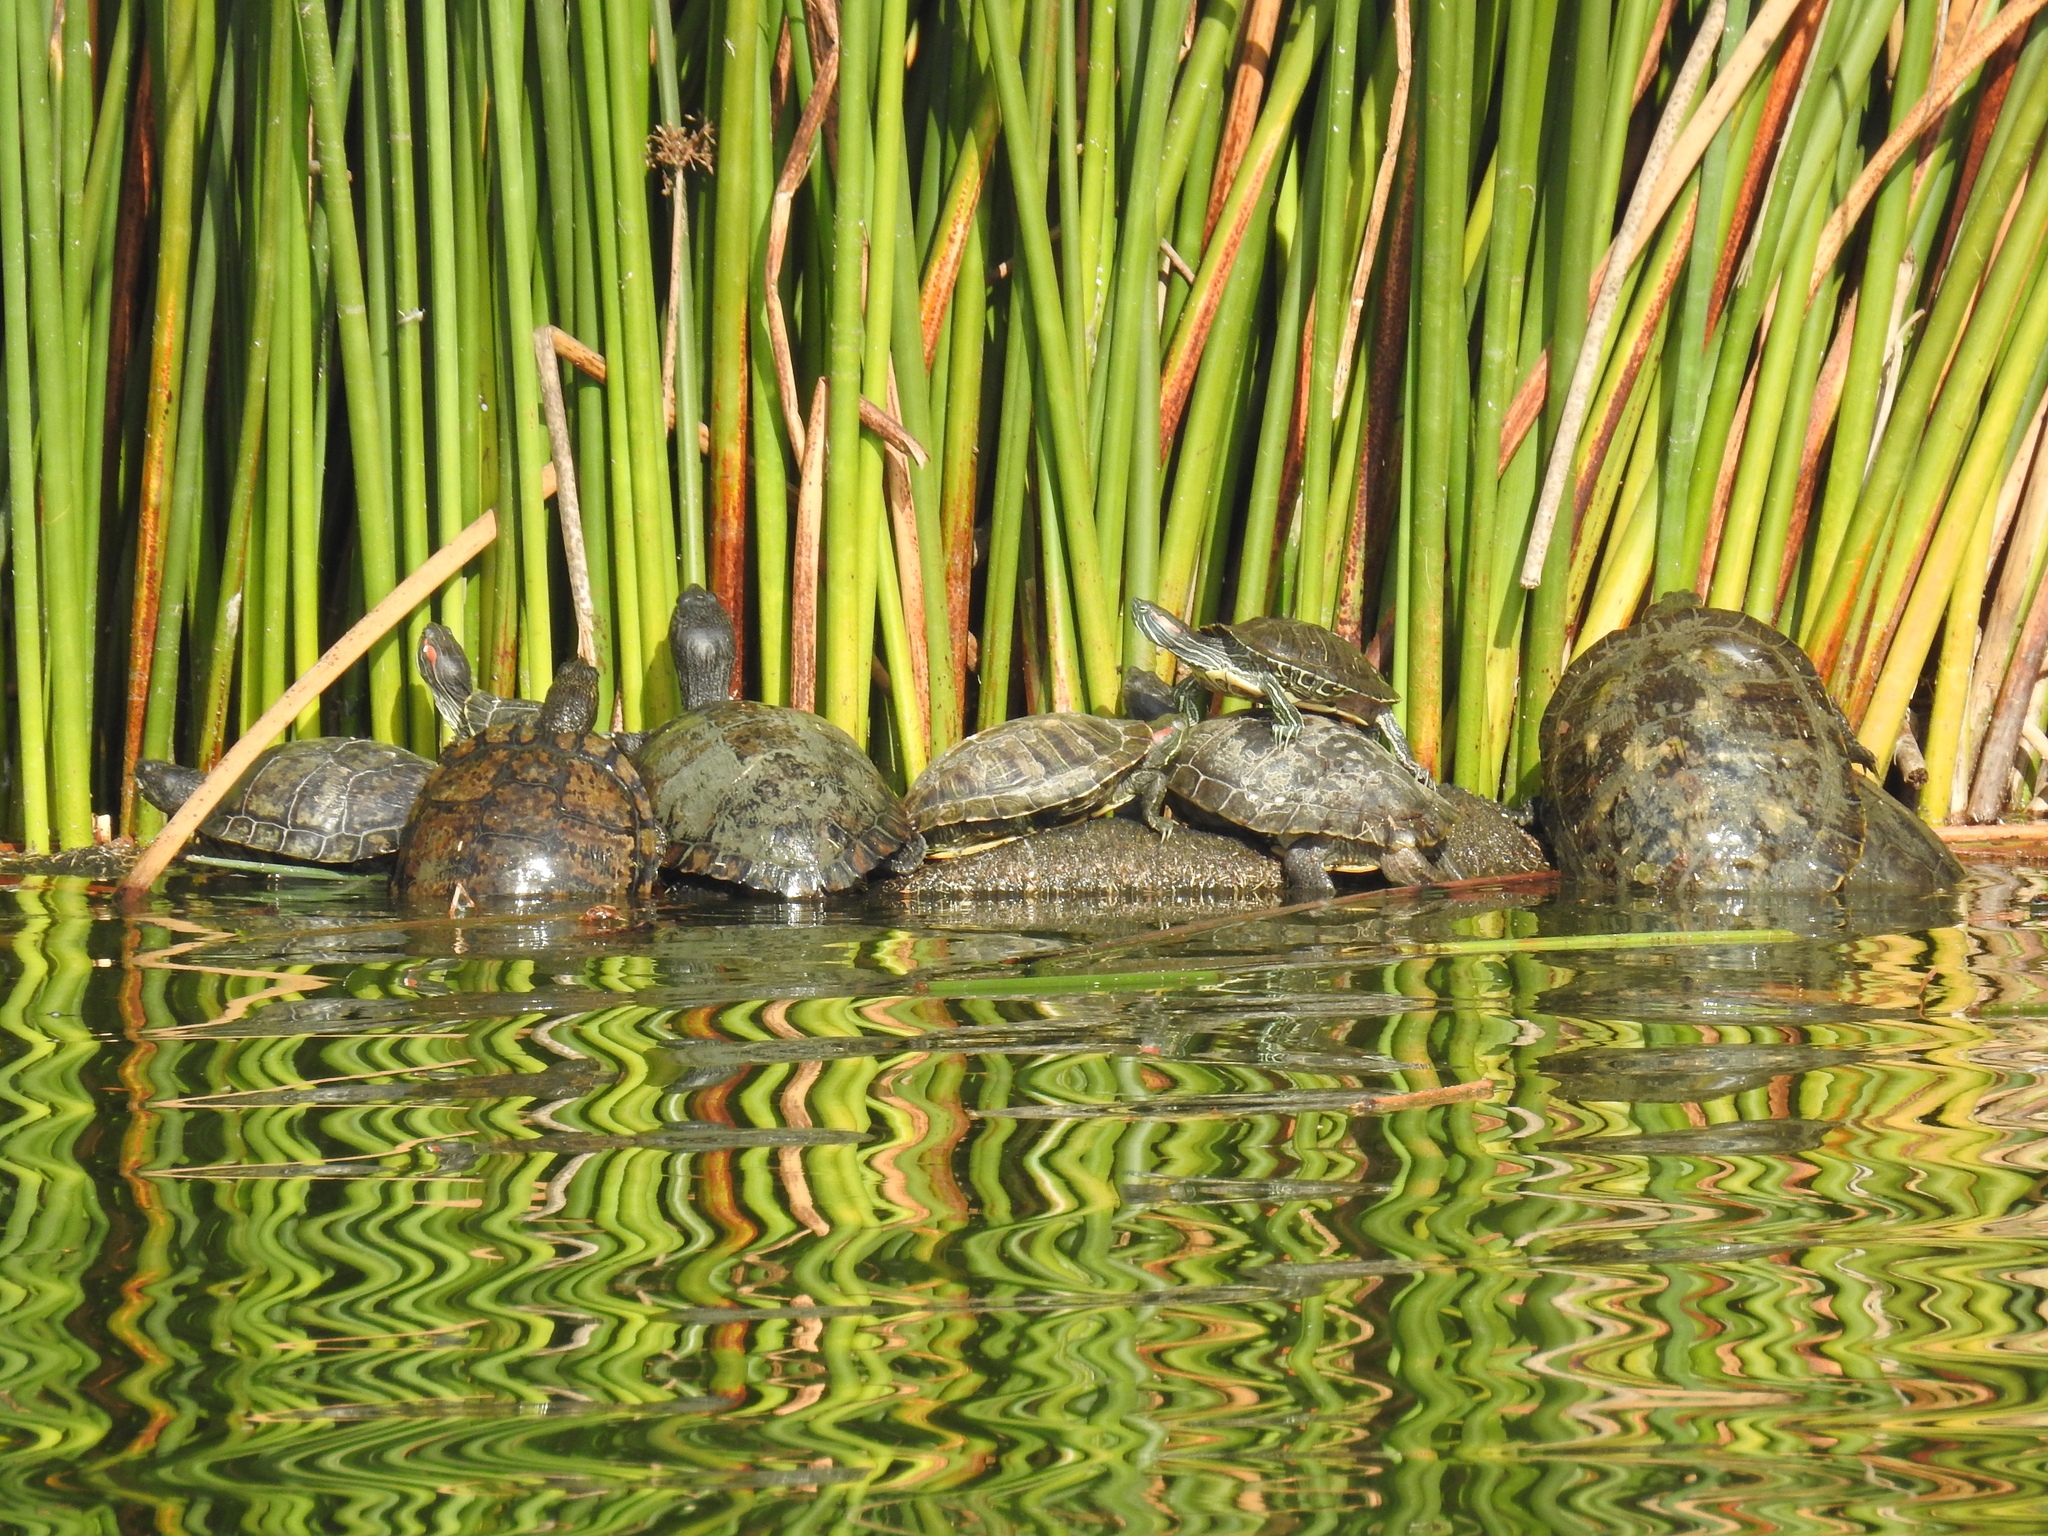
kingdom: Animalia
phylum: Chordata
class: Testudines
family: Emydidae
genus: Trachemys
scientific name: Trachemys scripta
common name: Slider
